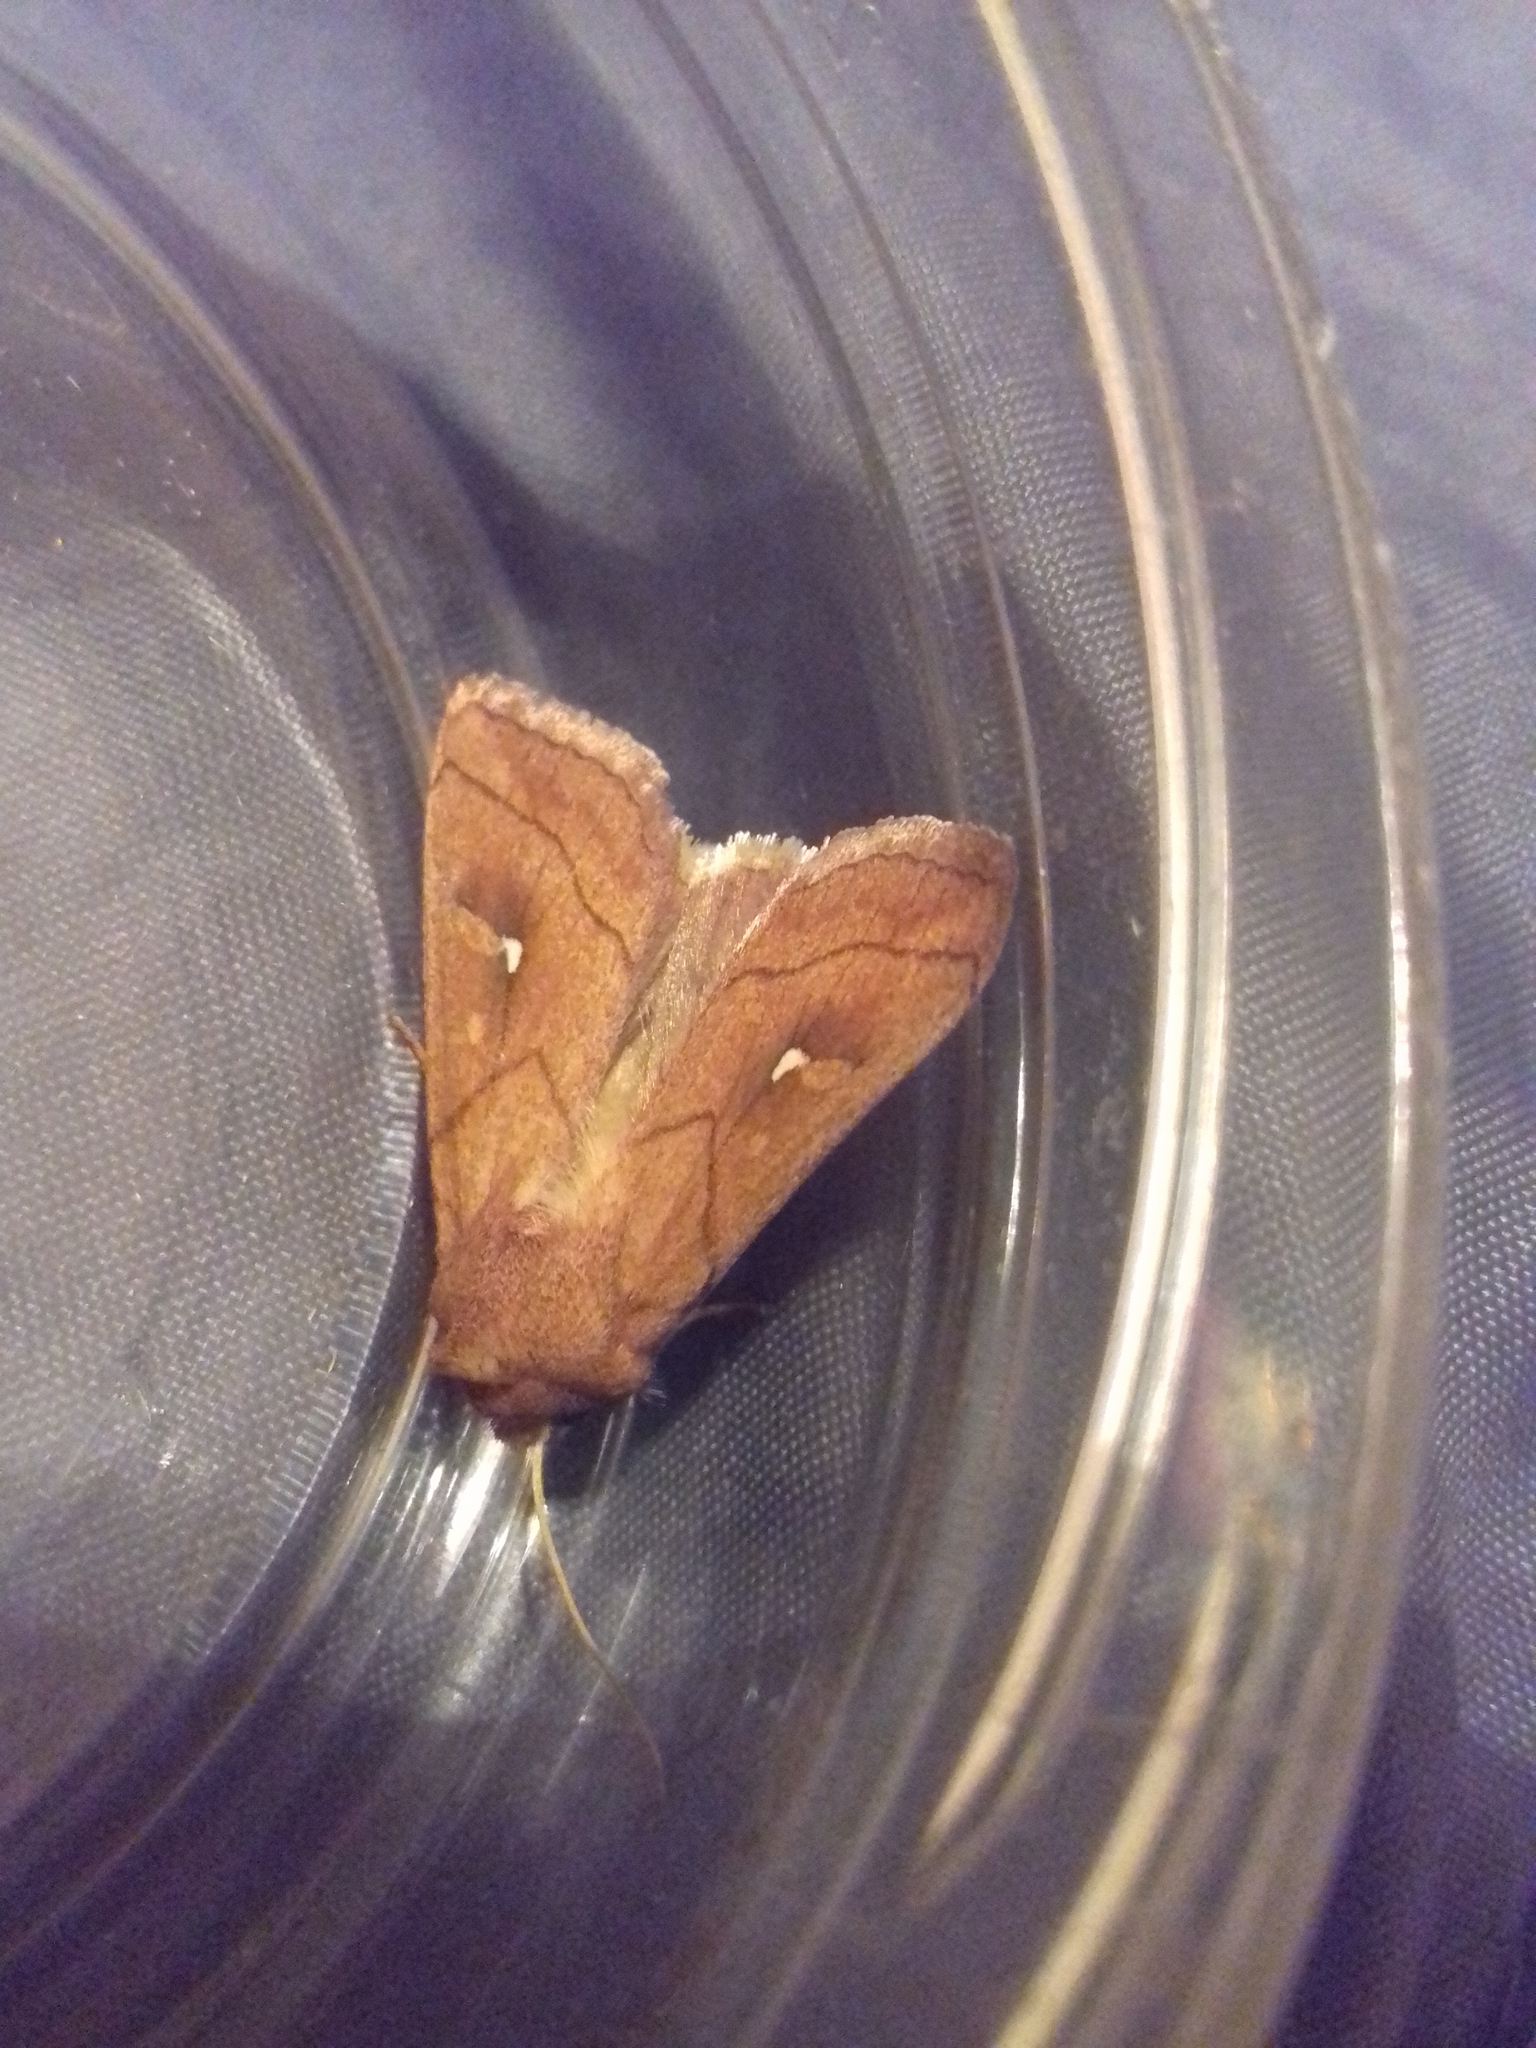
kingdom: Animalia
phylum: Arthropoda
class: Insecta
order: Lepidoptera
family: Noctuidae
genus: Mythimna
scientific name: Mythimna conigera
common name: Brown-line bright-eye
